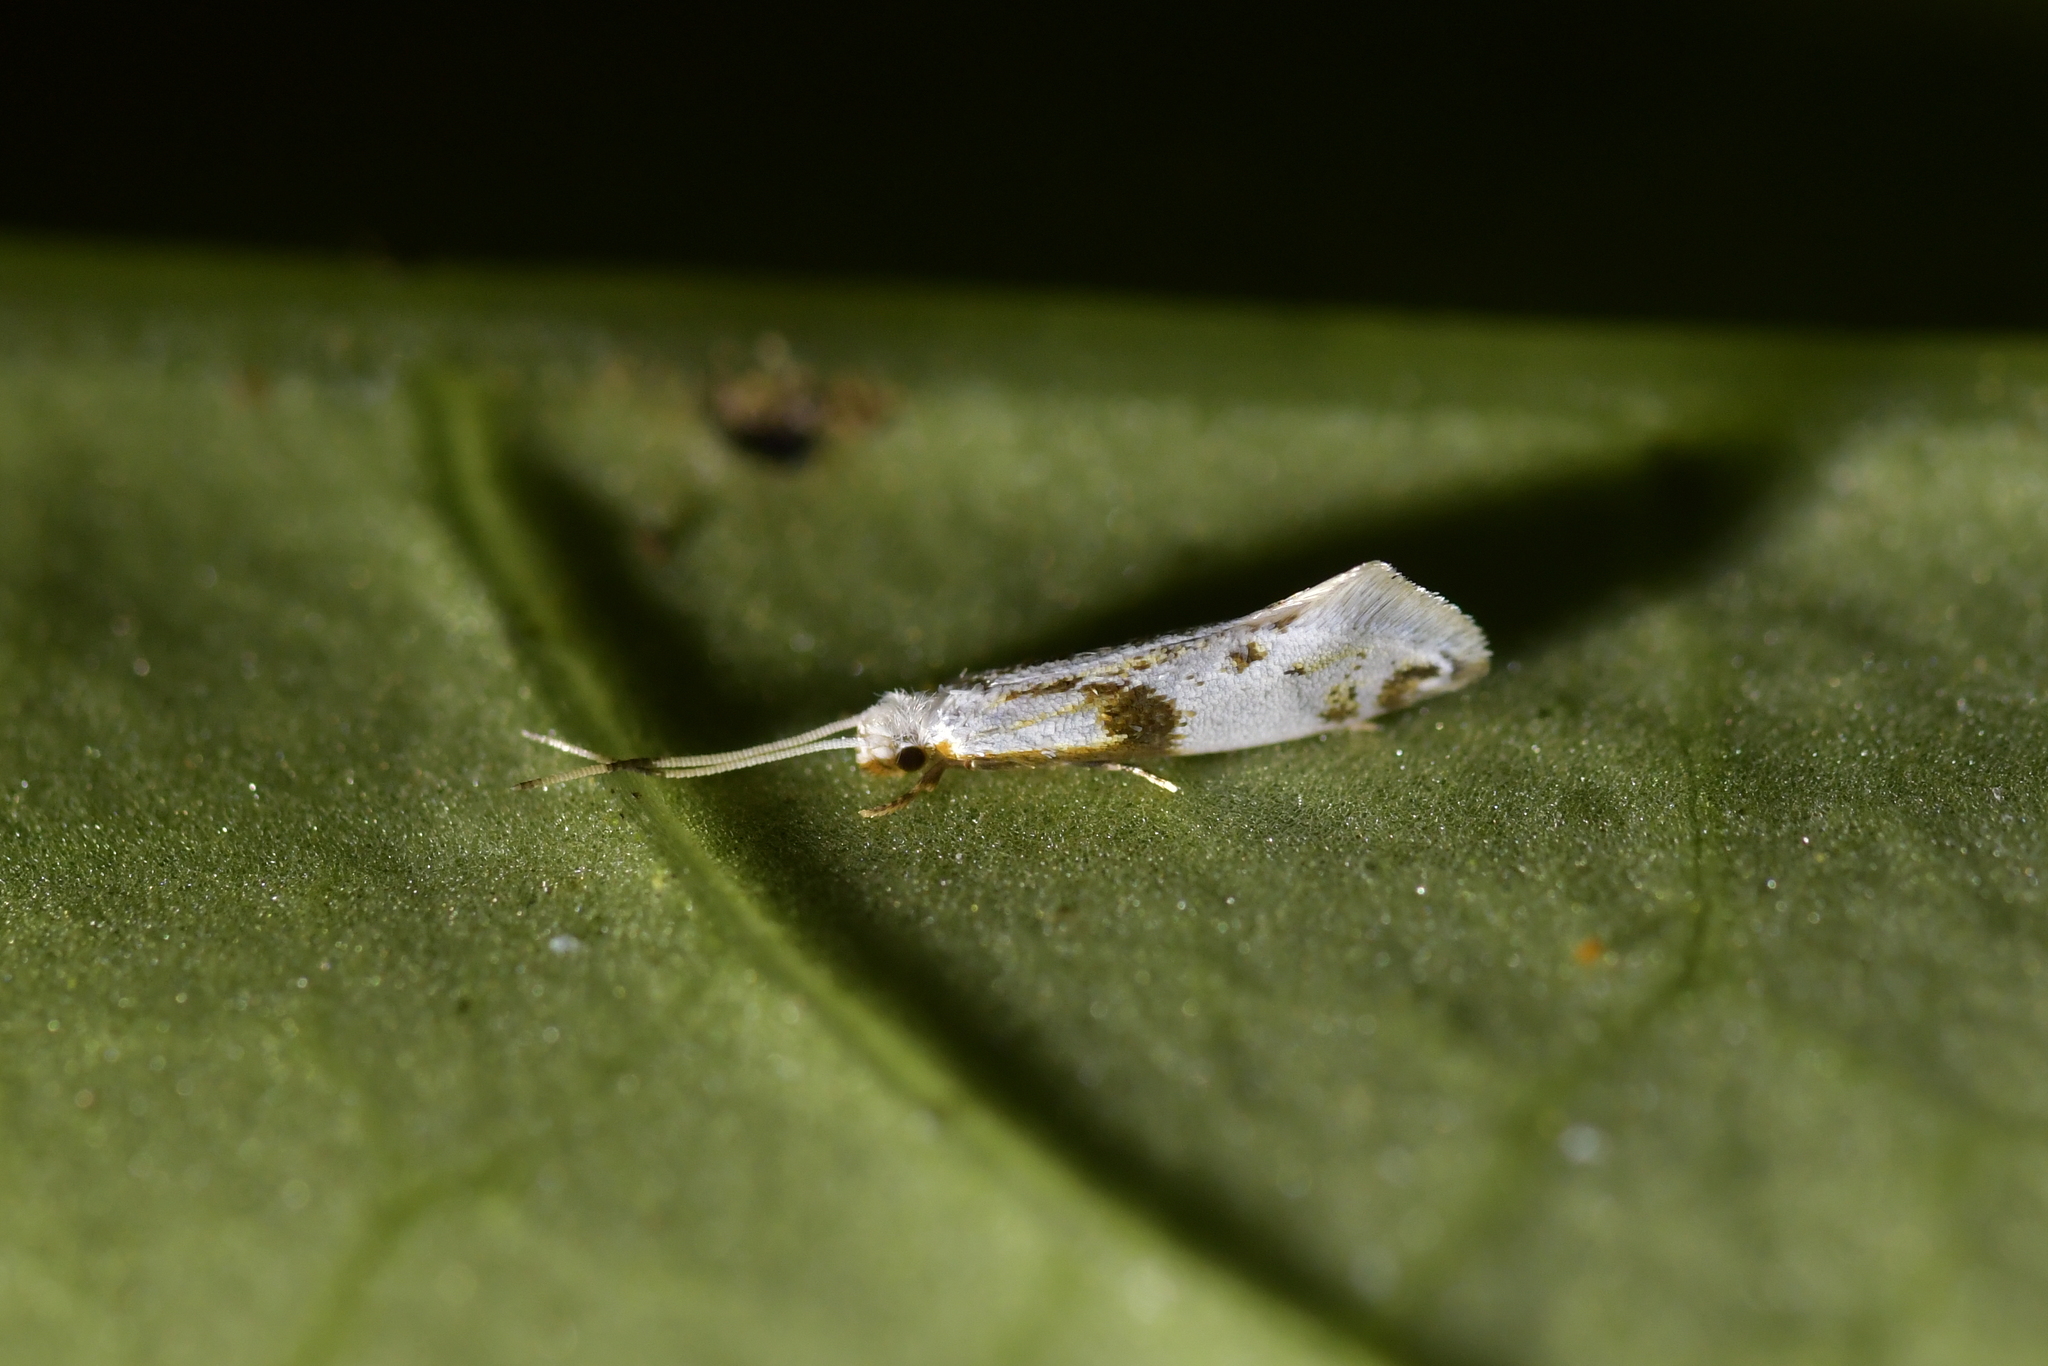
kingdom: Animalia
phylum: Arthropoda
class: Insecta
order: Lepidoptera
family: Tineidae
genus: Sagephora
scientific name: Sagephora felix
